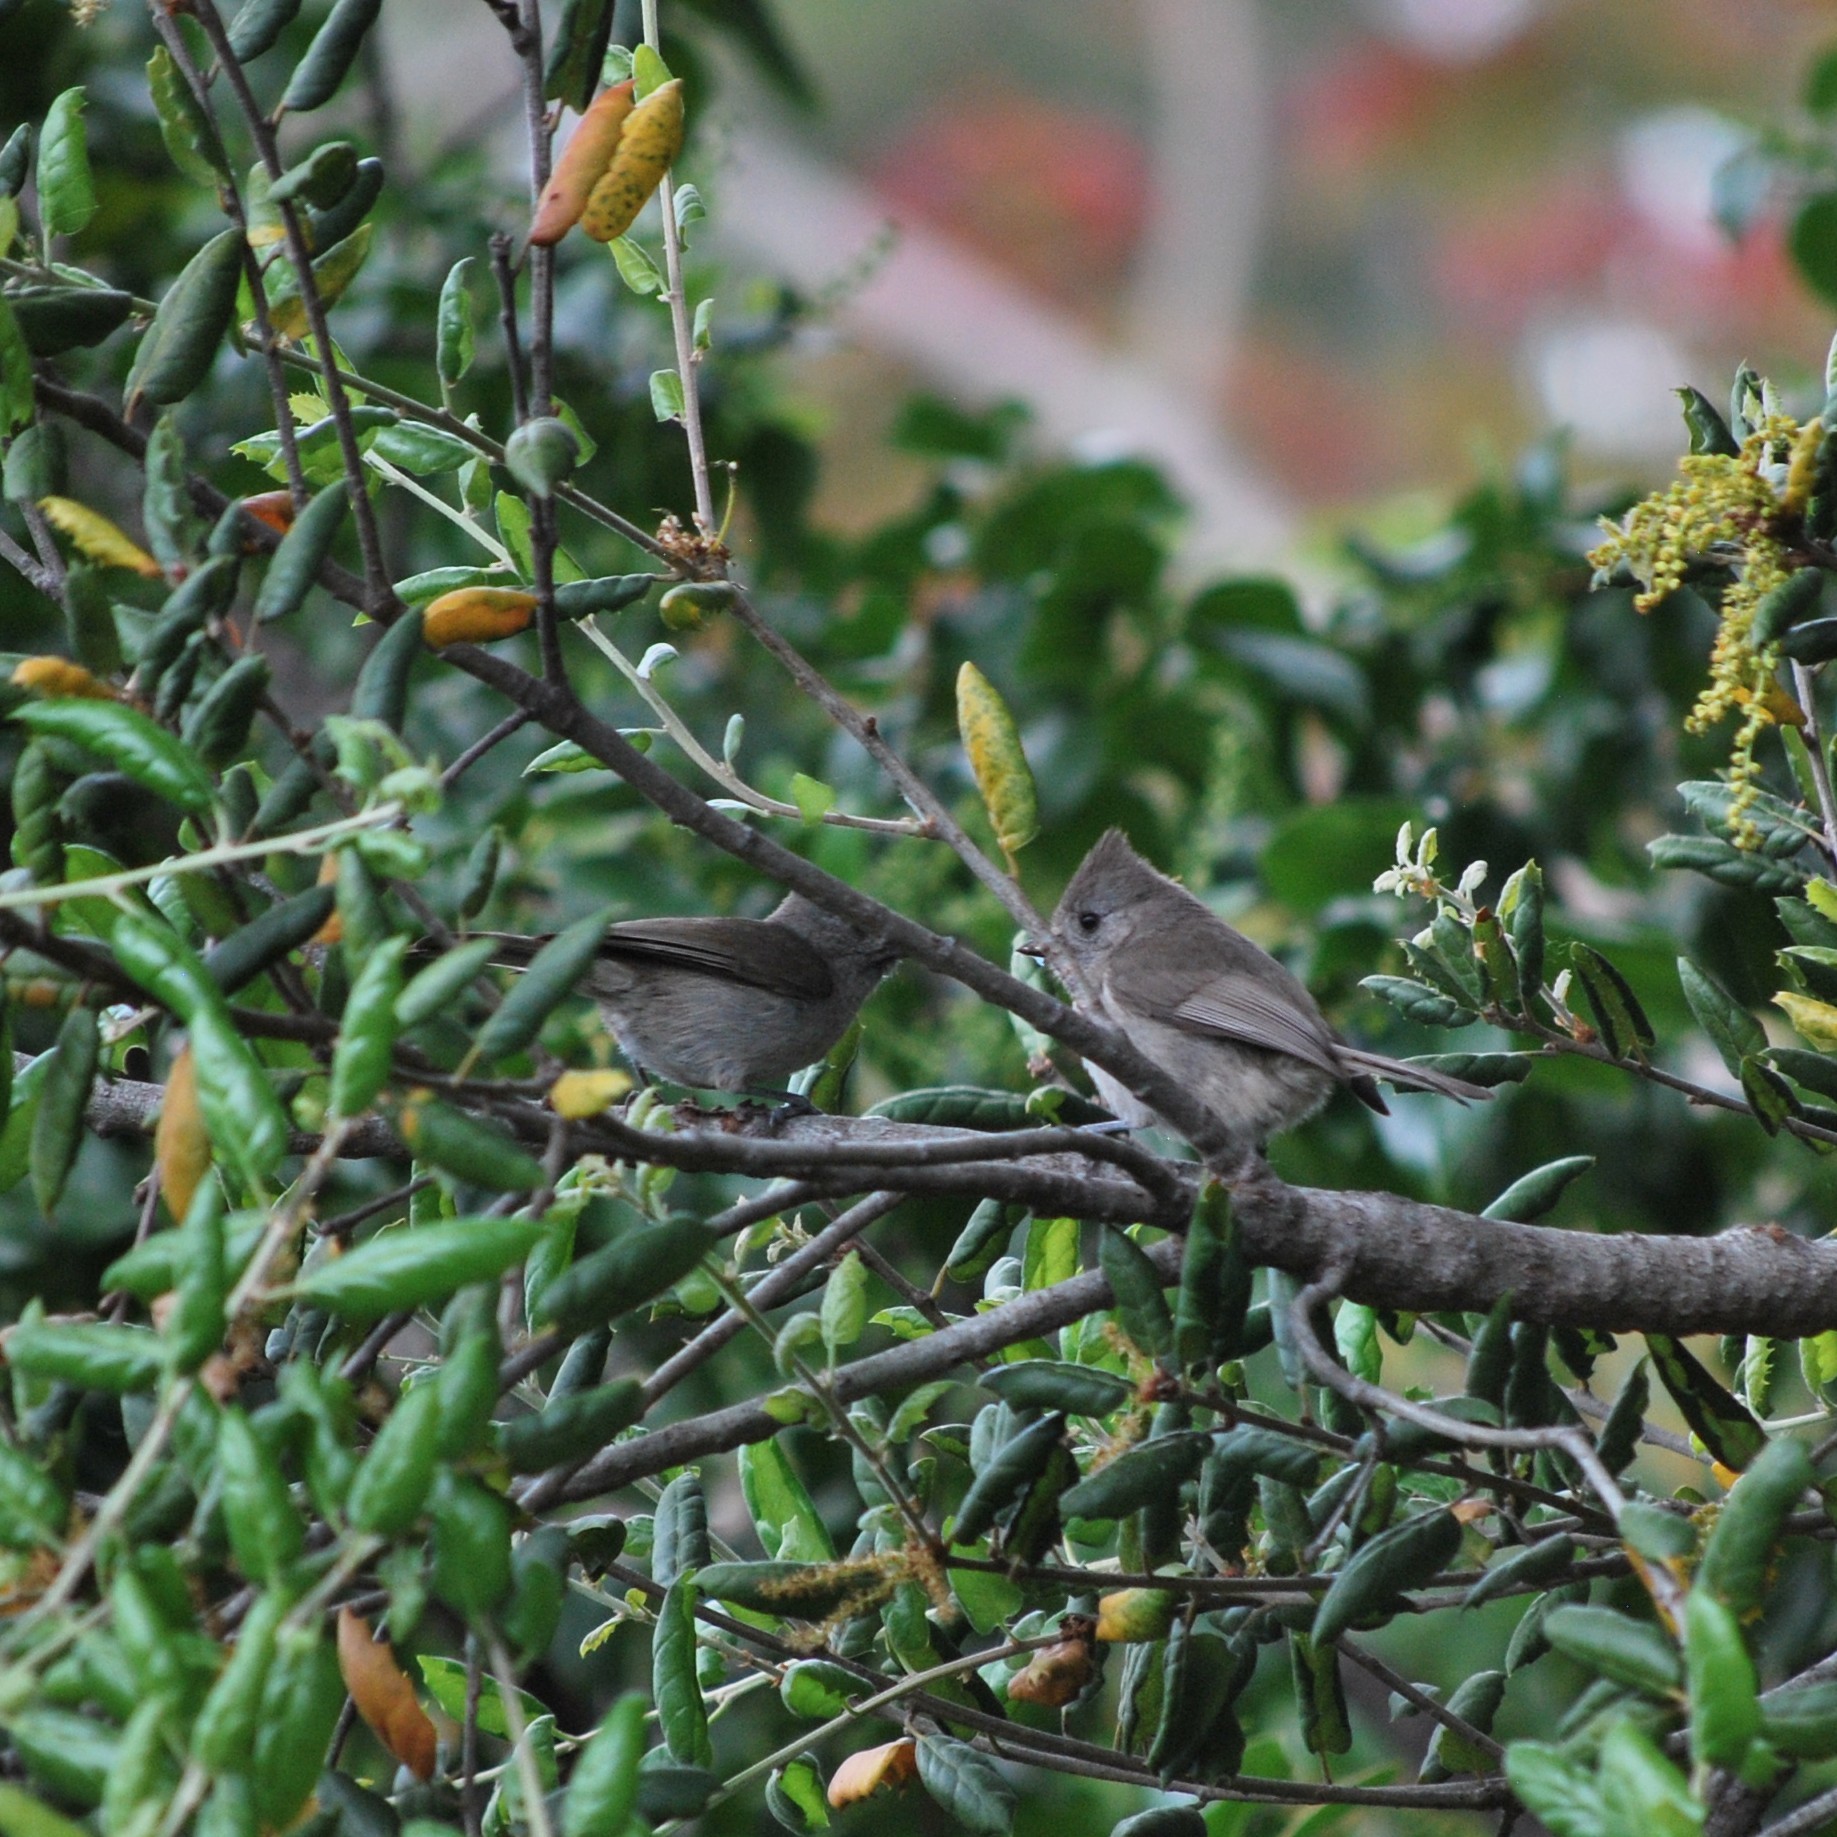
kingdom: Animalia
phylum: Chordata
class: Aves
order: Passeriformes
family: Paridae
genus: Baeolophus
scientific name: Baeolophus inornatus
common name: Oak titmouse
